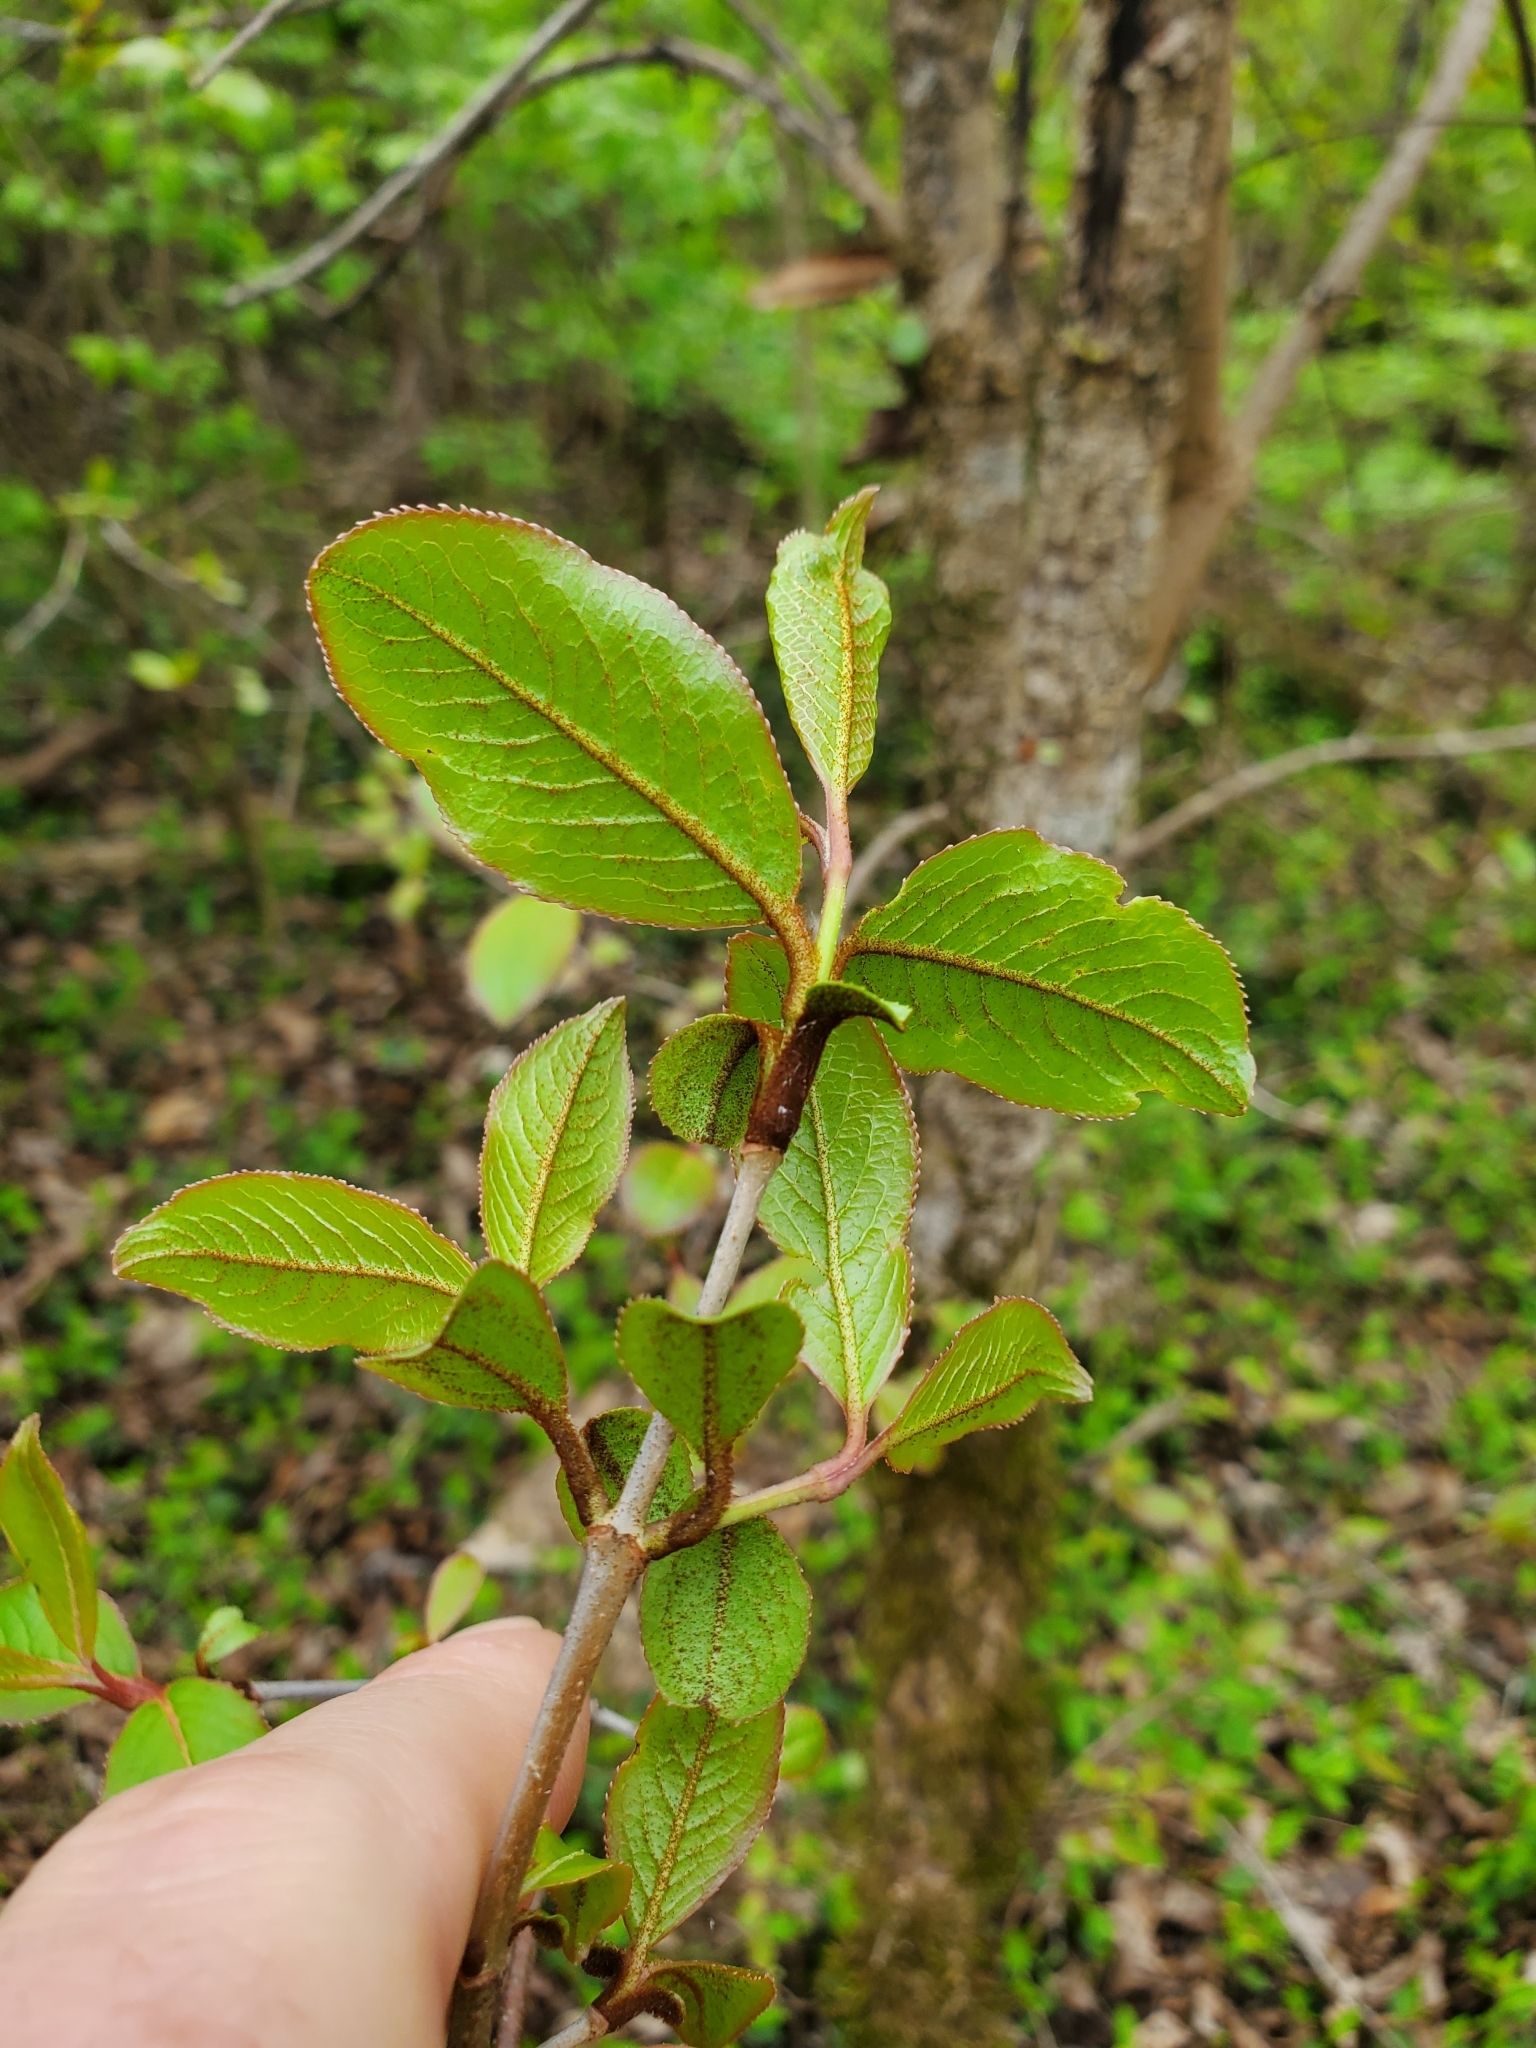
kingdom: Plantae
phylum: Tracheophyta
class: Magnoliopsida
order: Dipsacales
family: Viburnaceae
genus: Viburnum
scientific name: Viburnum rufidulum
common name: Blue haw
